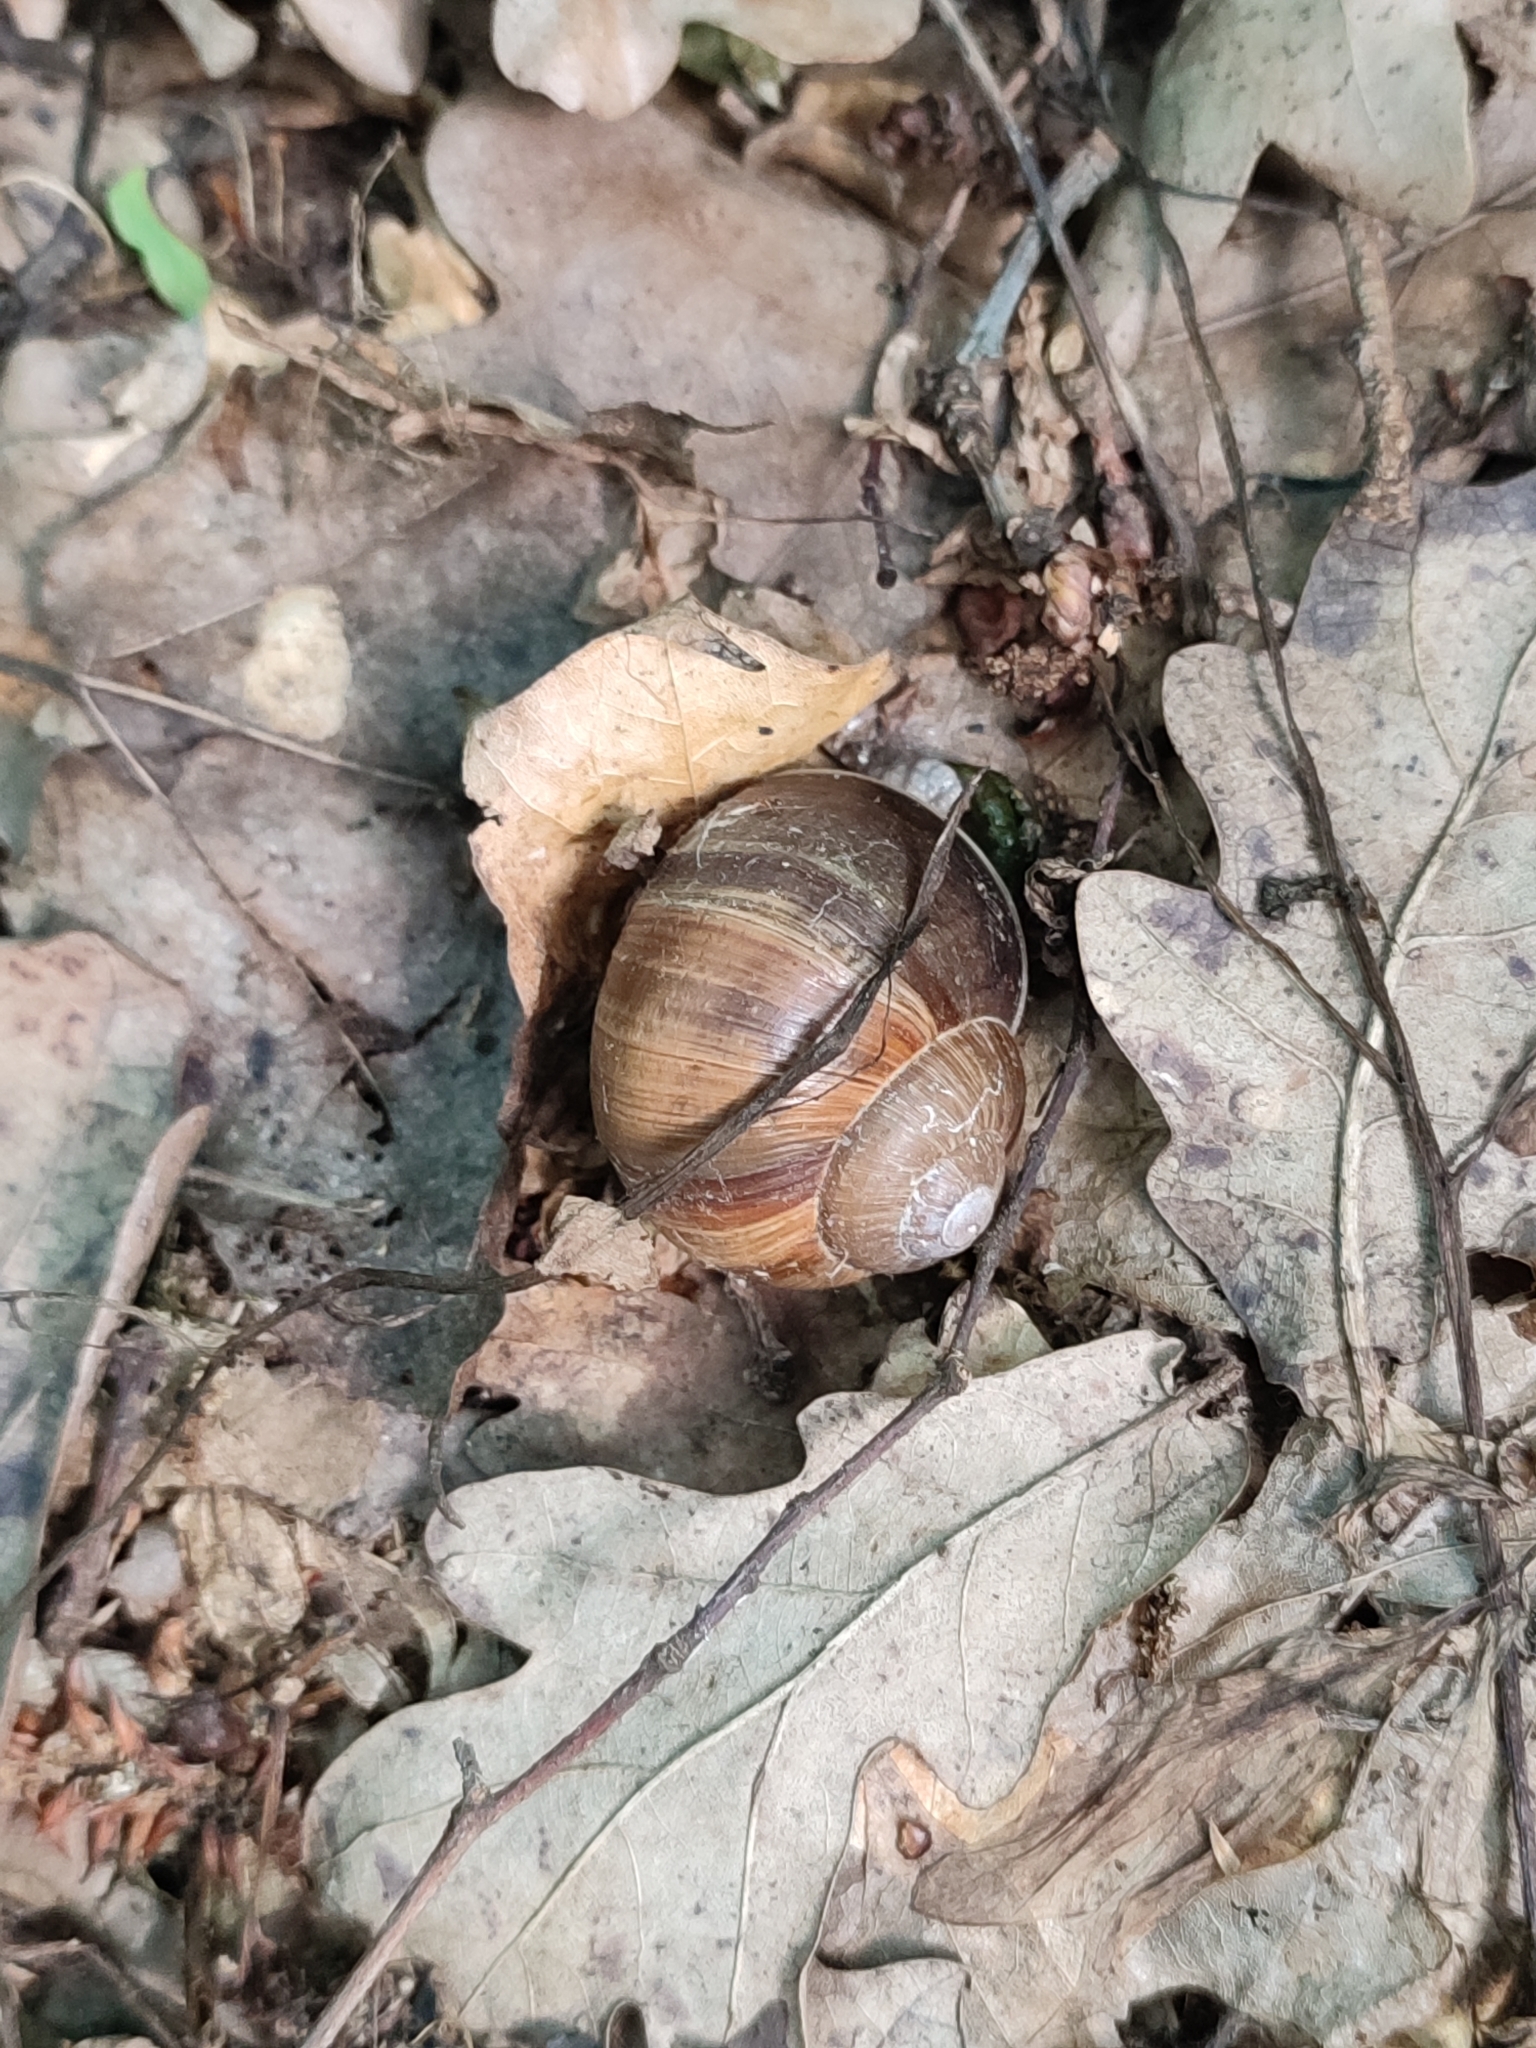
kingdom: Animalia
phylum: Mollusca
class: Gastropoda
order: Stylommatophora
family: Helicidae
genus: Helix
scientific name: Helix pomatia
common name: Roman snail
